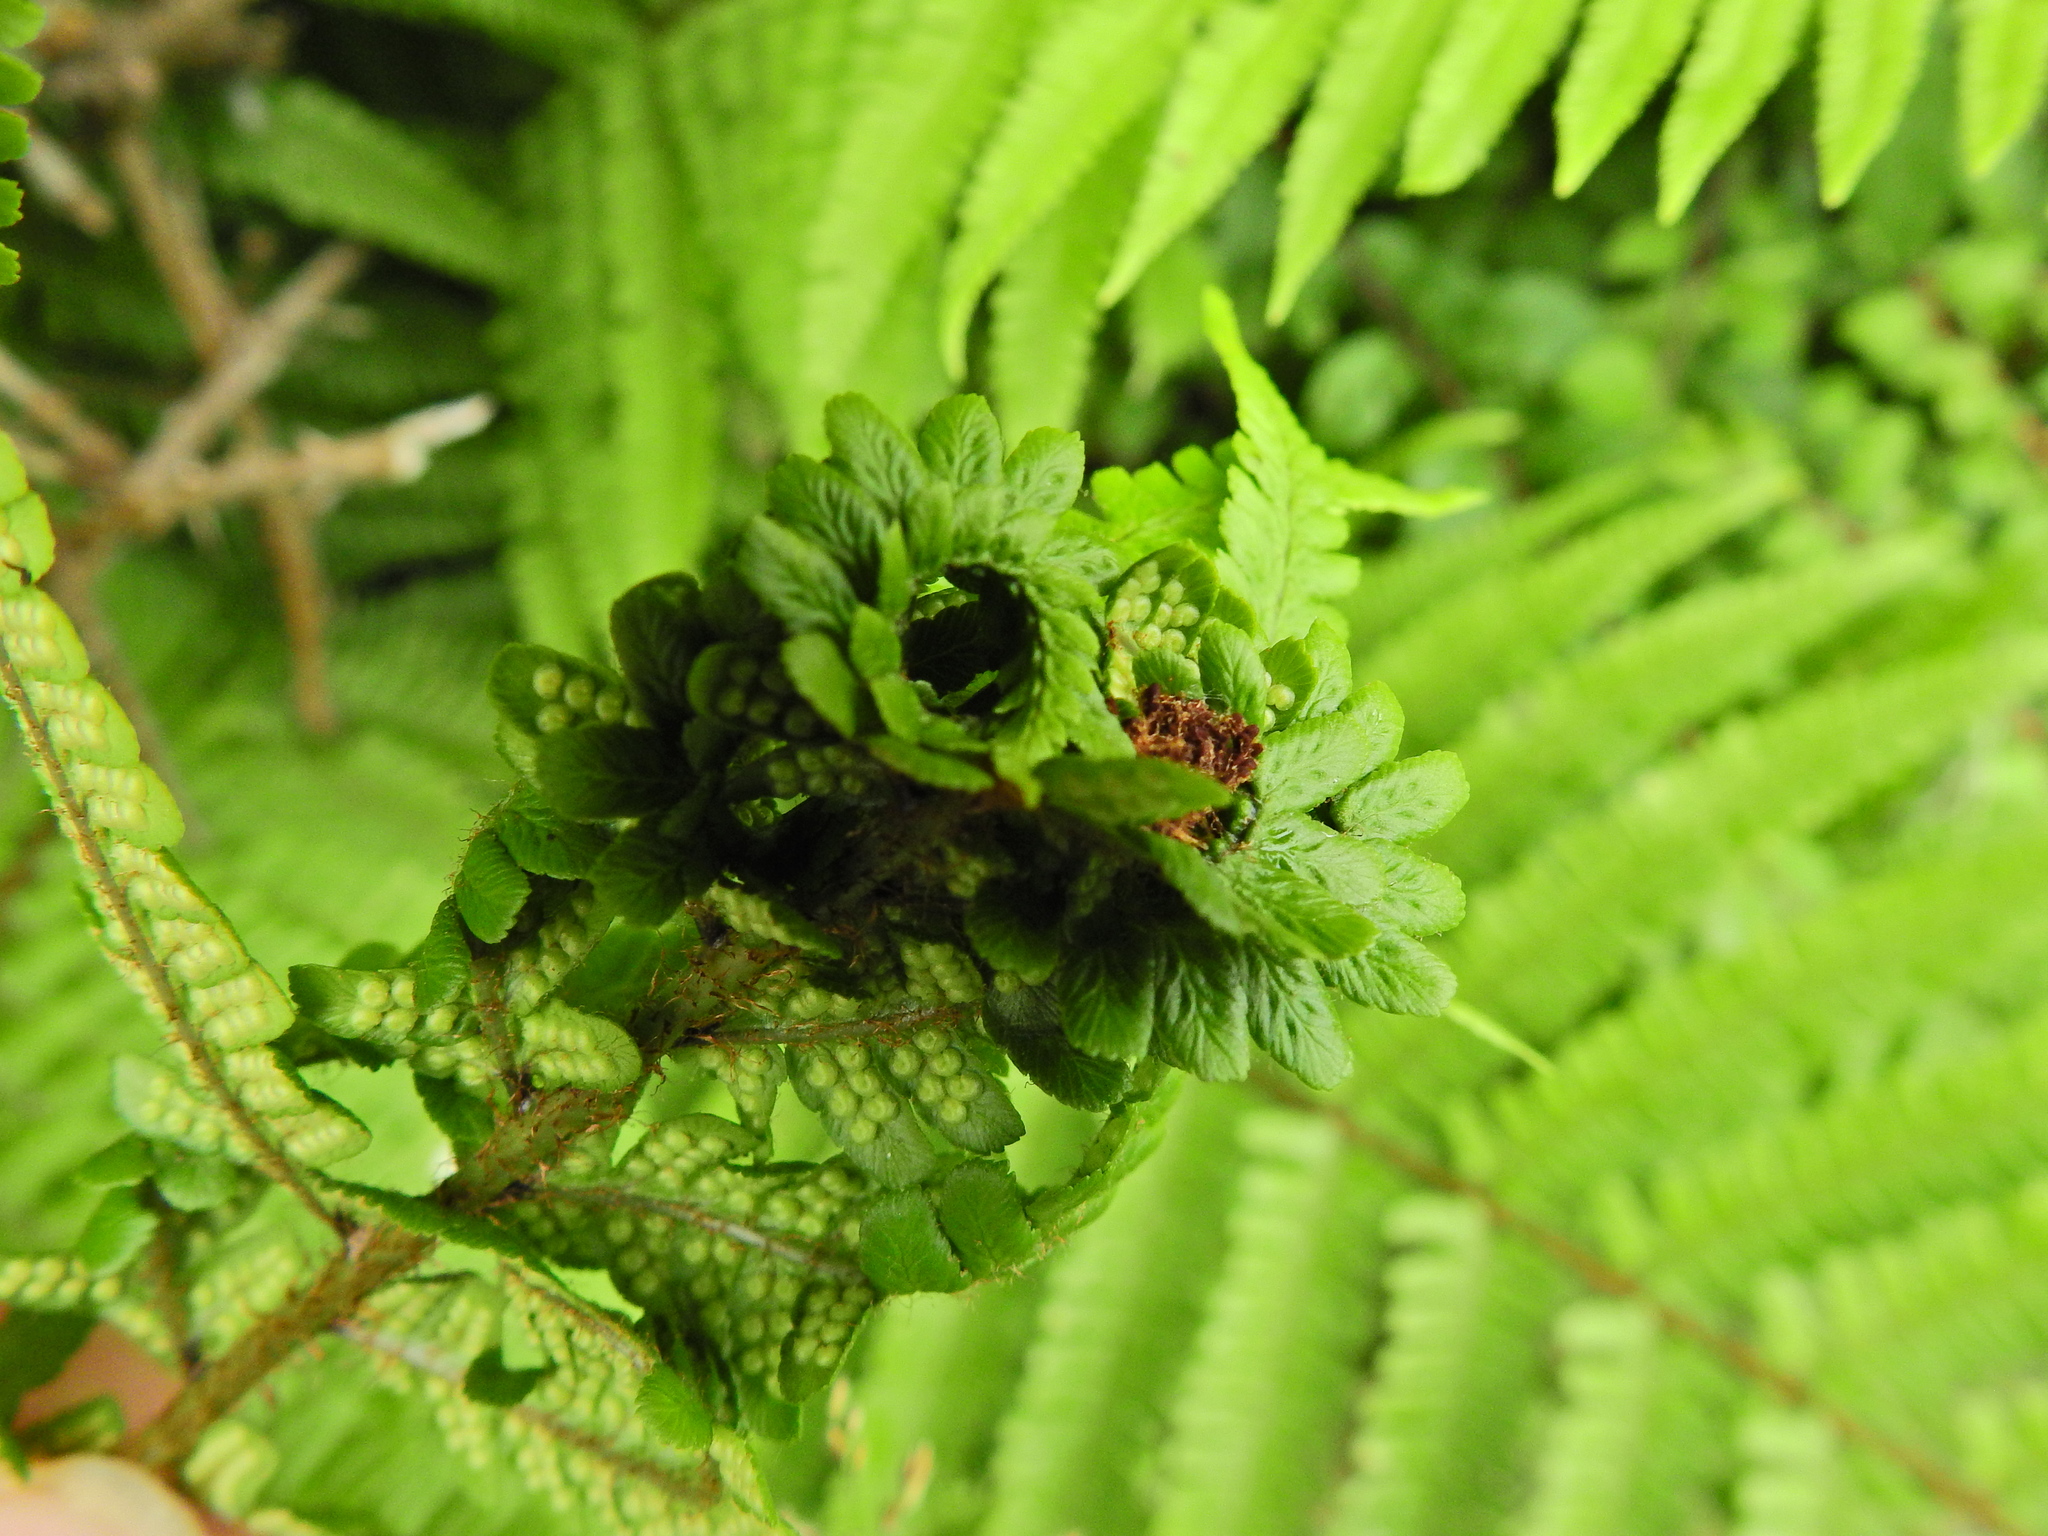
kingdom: Animalia
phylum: Arthropoda
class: Insecta
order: Diptera
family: Anthomyiidae
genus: Chirosia
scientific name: Chirosia betuleti
